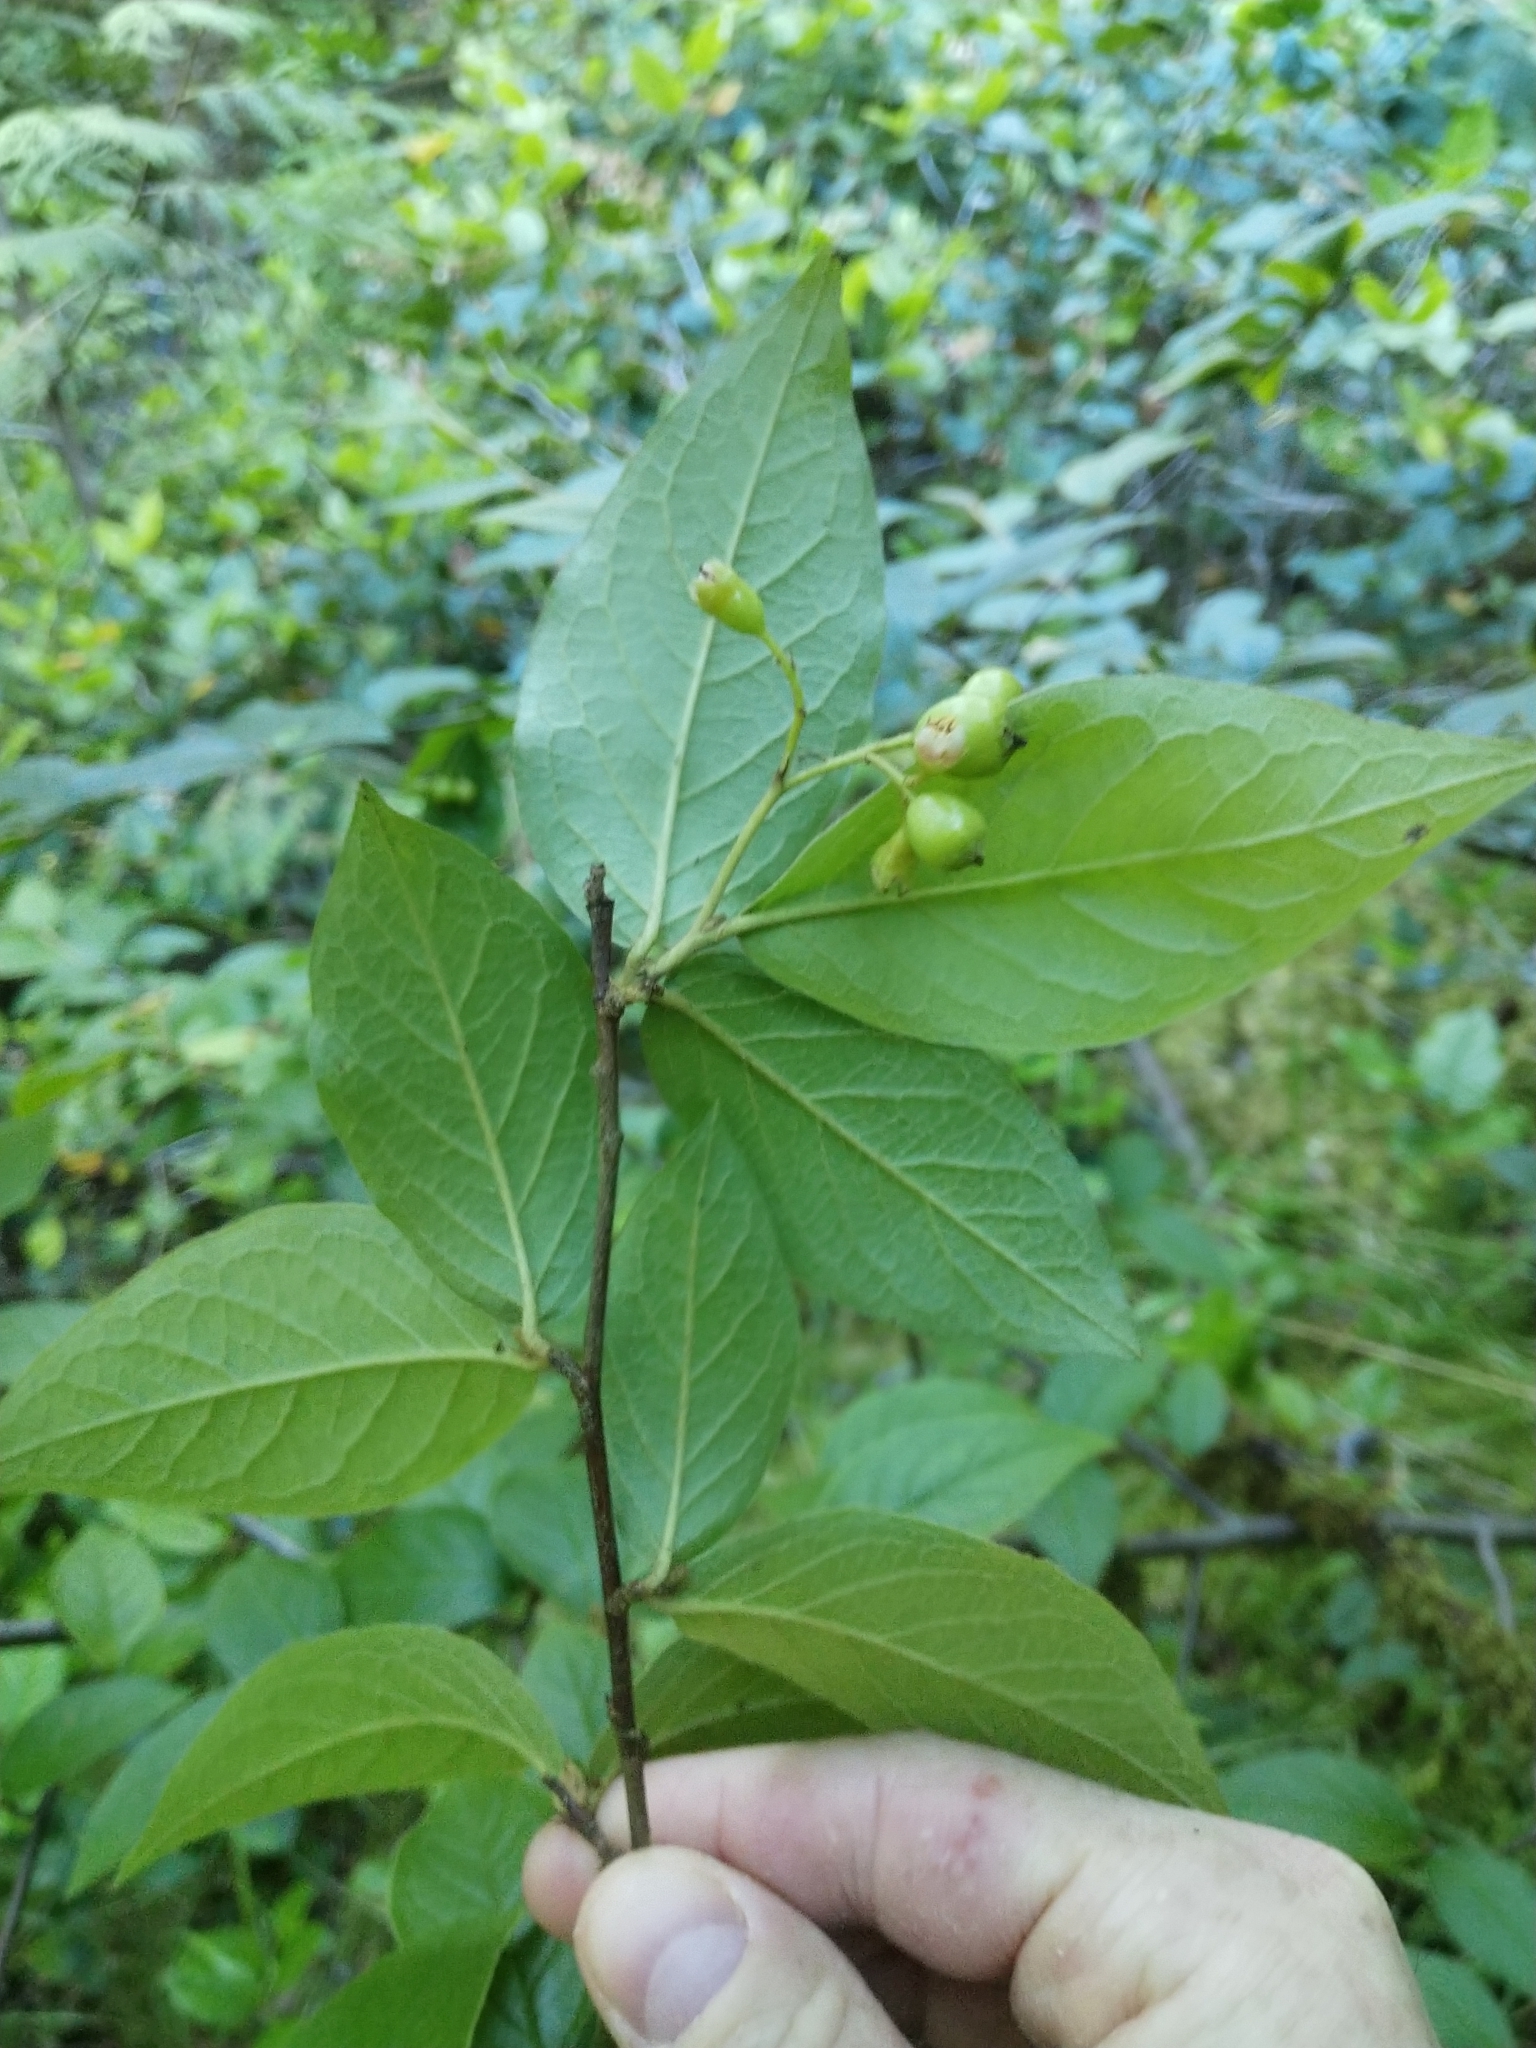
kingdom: Plantae
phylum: Tracheophyta
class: Magnoliopsida
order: Rosales
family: Rosaceae
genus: Cotoneaster
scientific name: Cotoneaster bullatus
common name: Hollyberry cotoneaster
